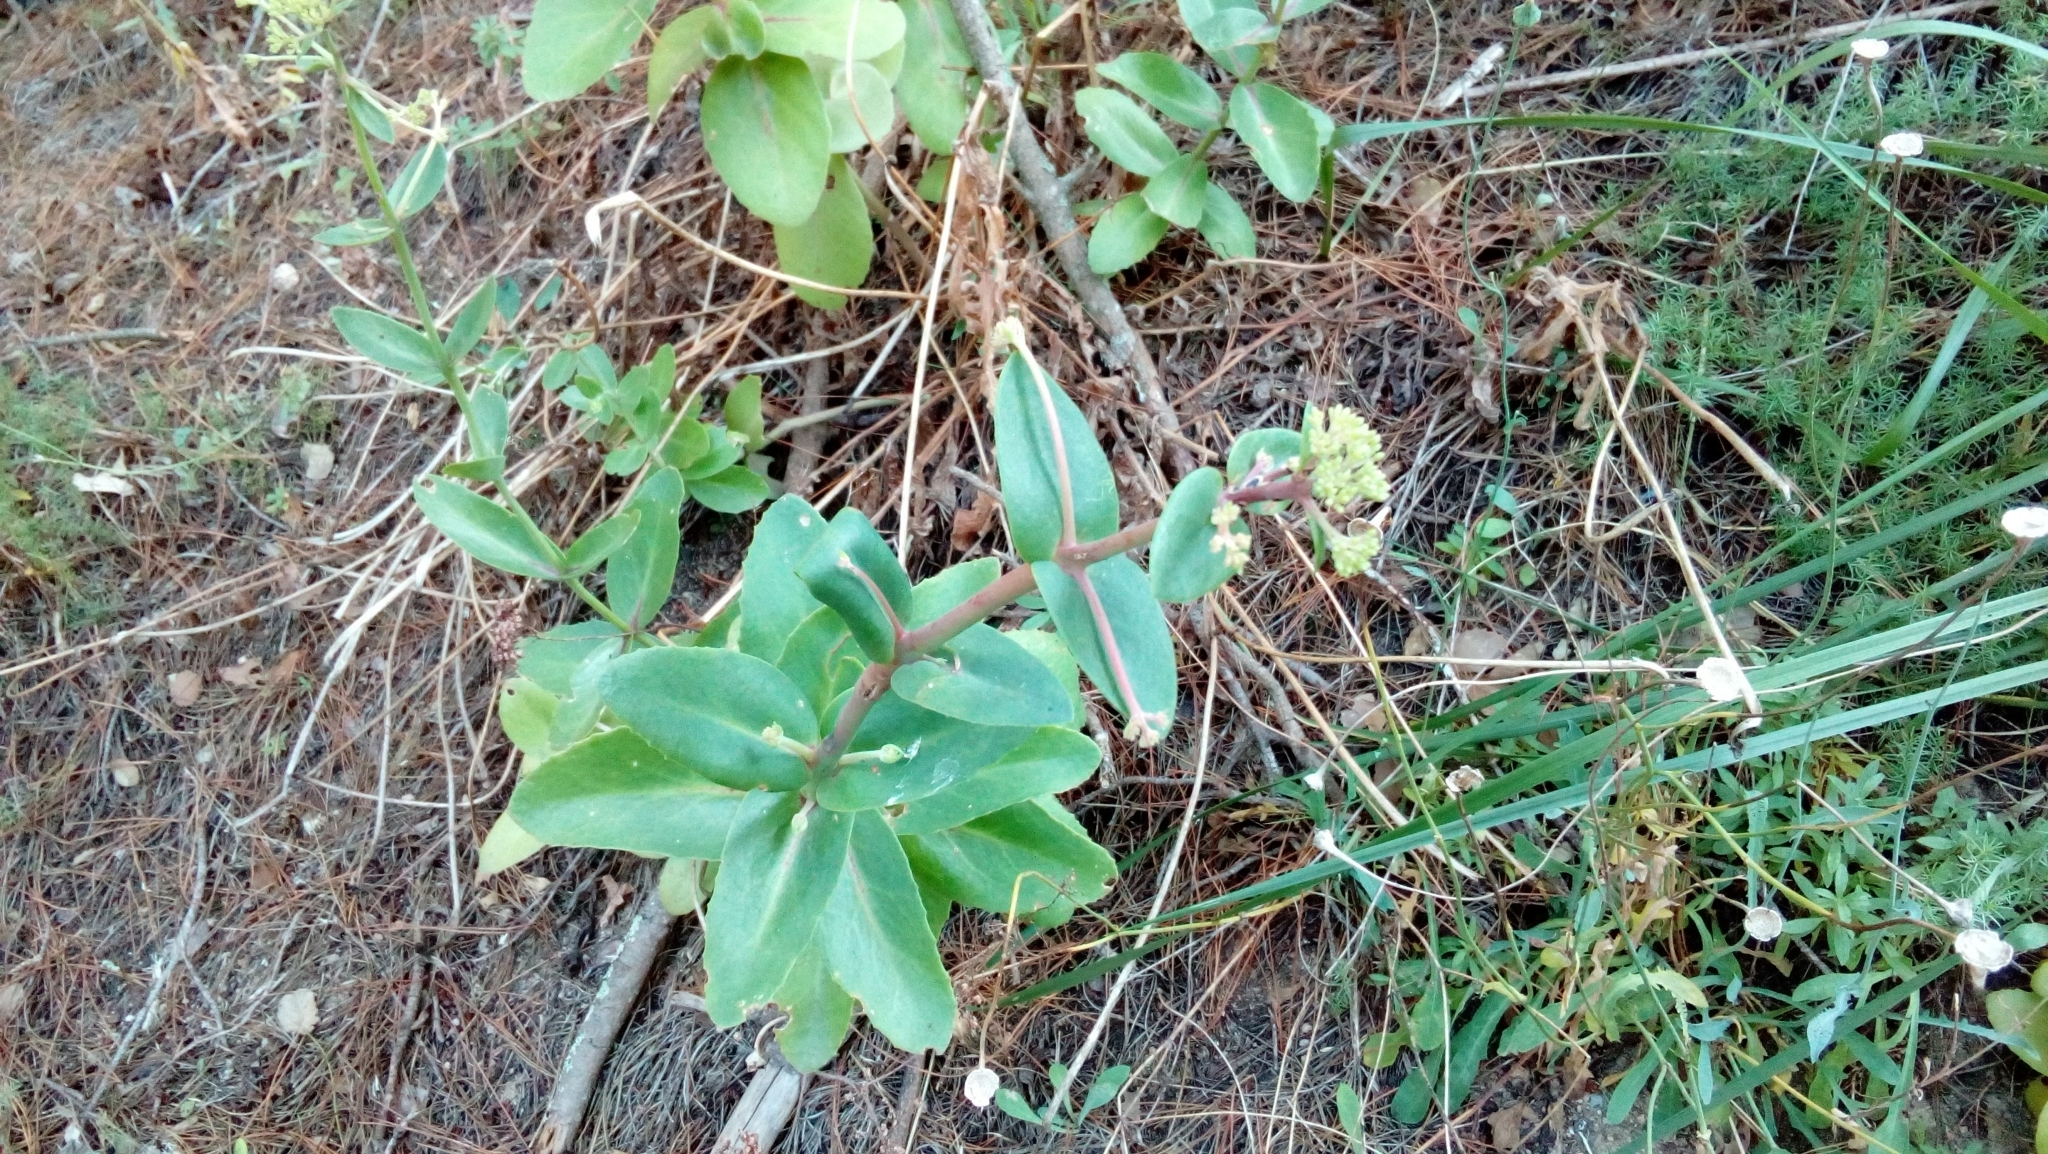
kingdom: Plantae
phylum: Tracheophyta
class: Magnoliopsida
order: Saxifragales
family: Crassulaceae
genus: Hylotelephium
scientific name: Hylotelephium maximum
